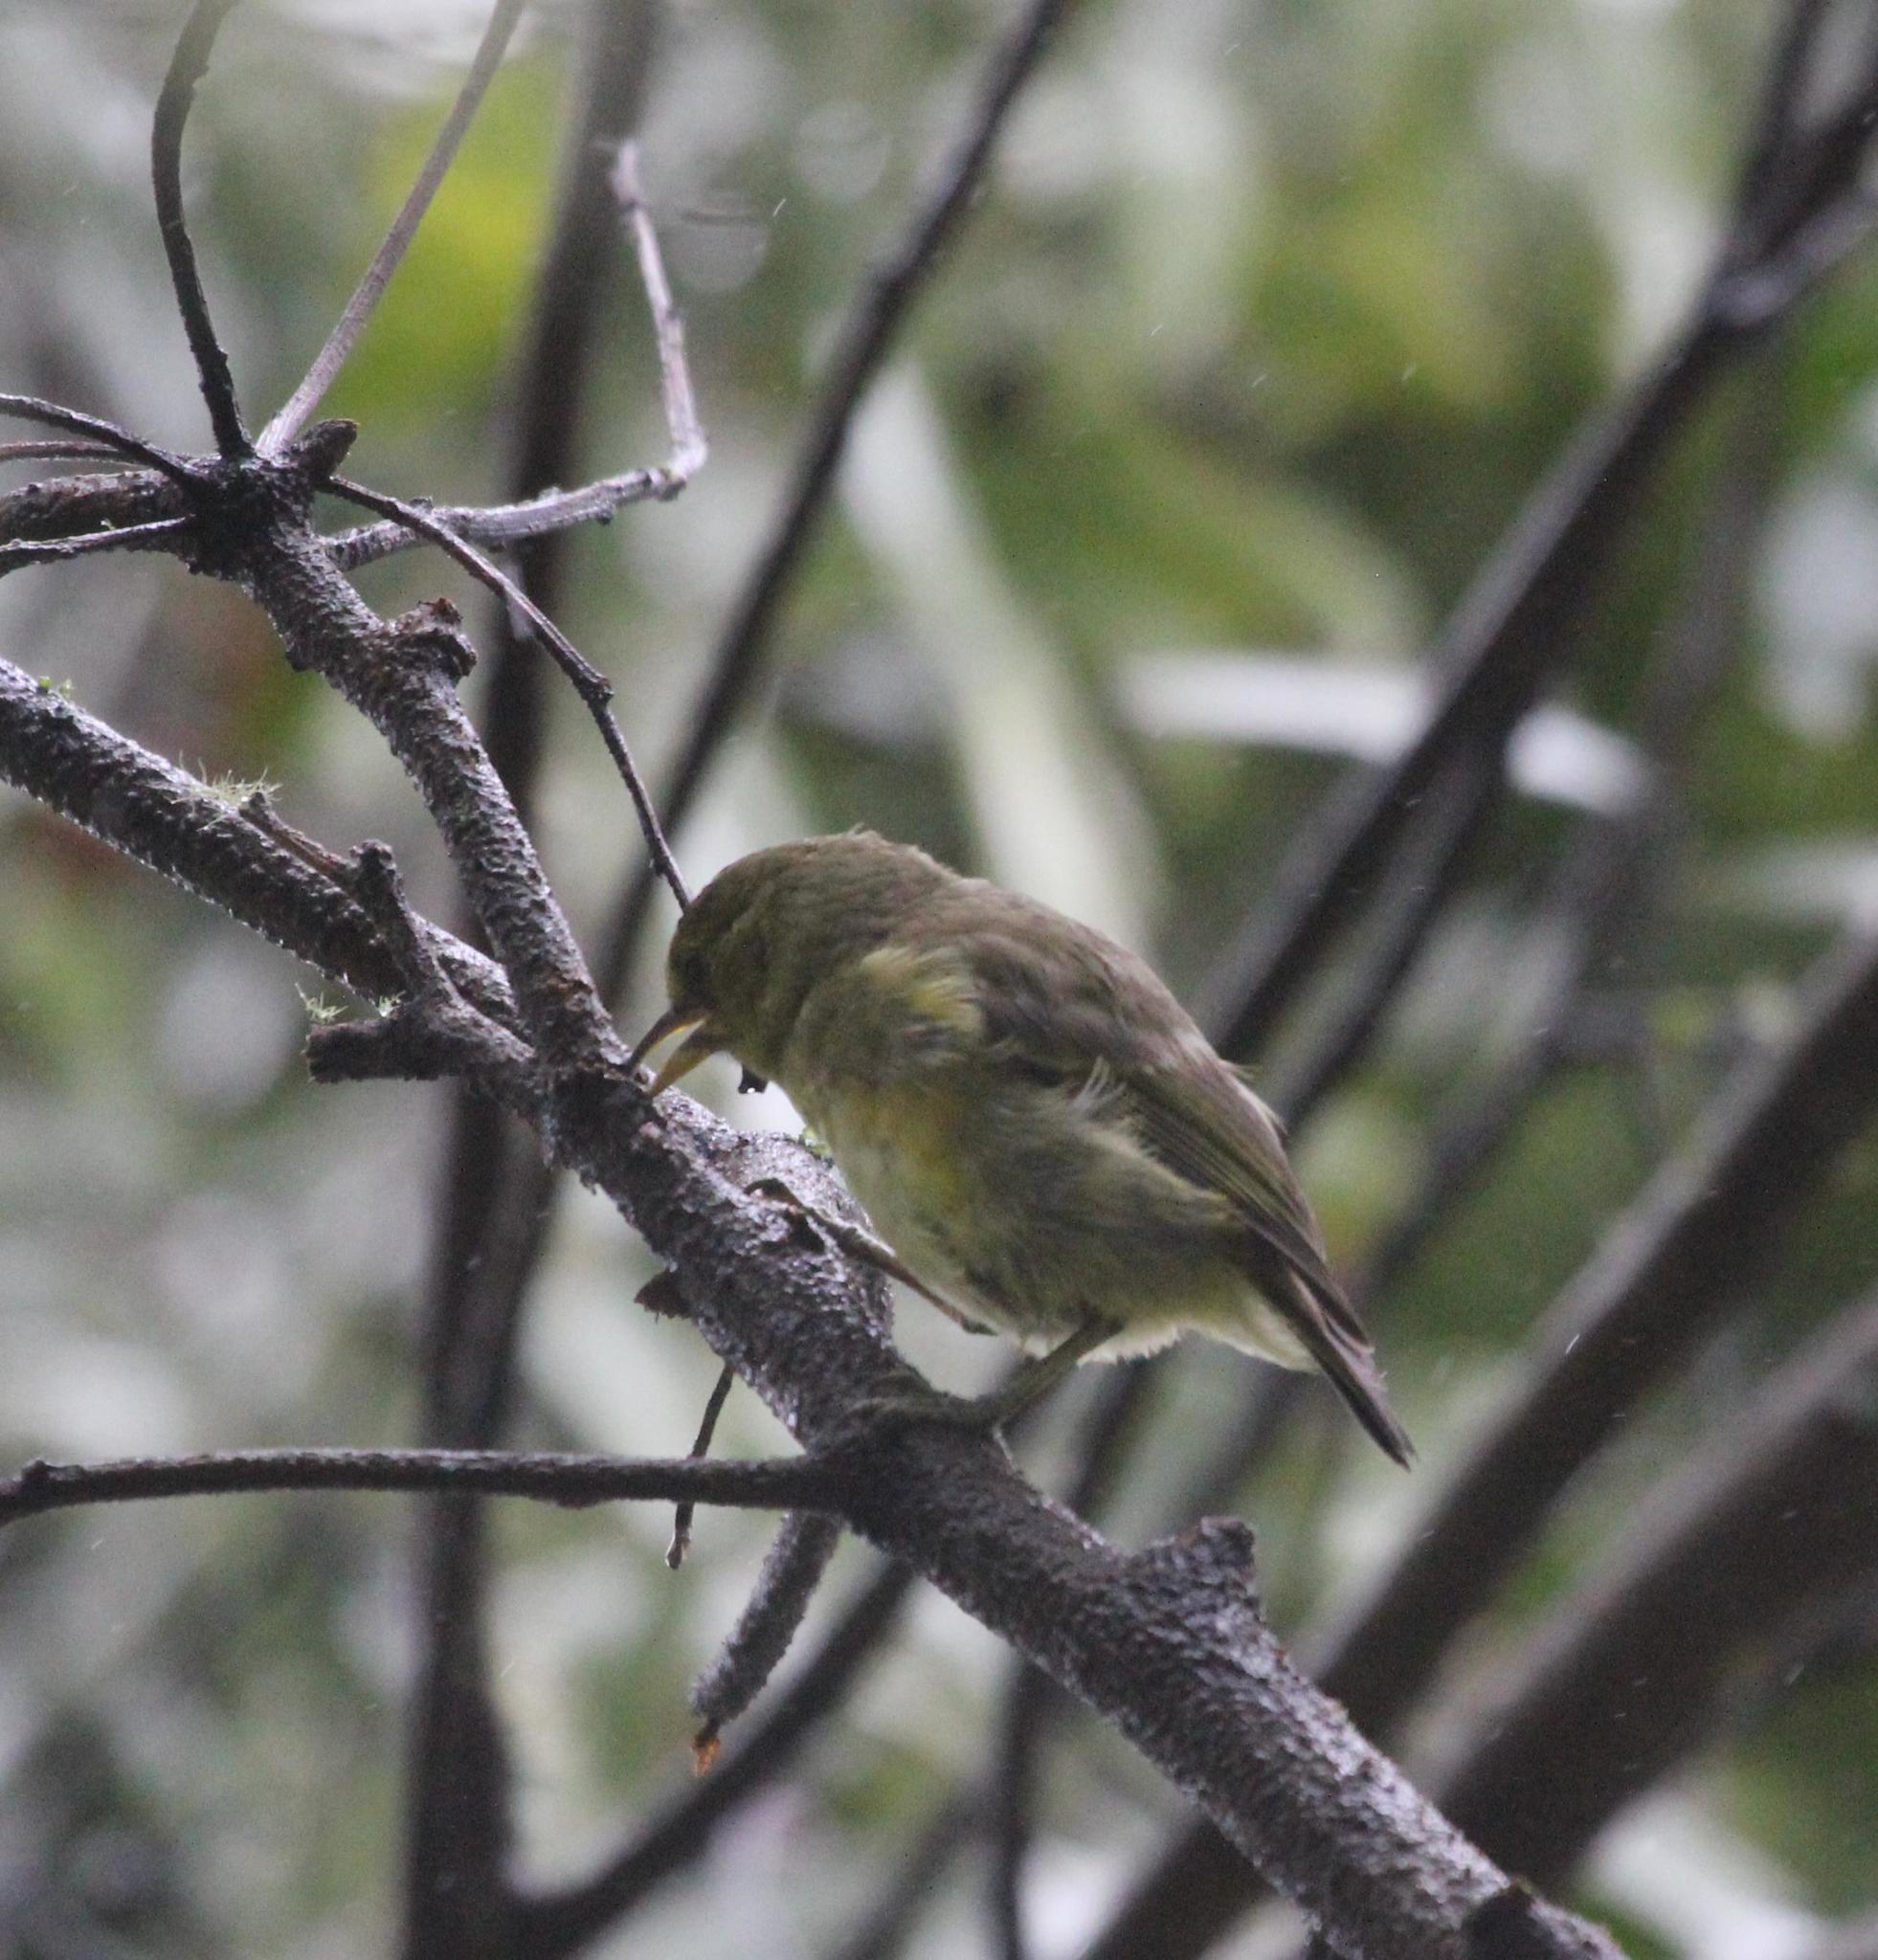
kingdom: Animalia
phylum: Chordata
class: Aves
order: Passeriformes
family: Fringillidae
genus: Hemignathus
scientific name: Hemignathus wilsoni
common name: Akiapolaau
